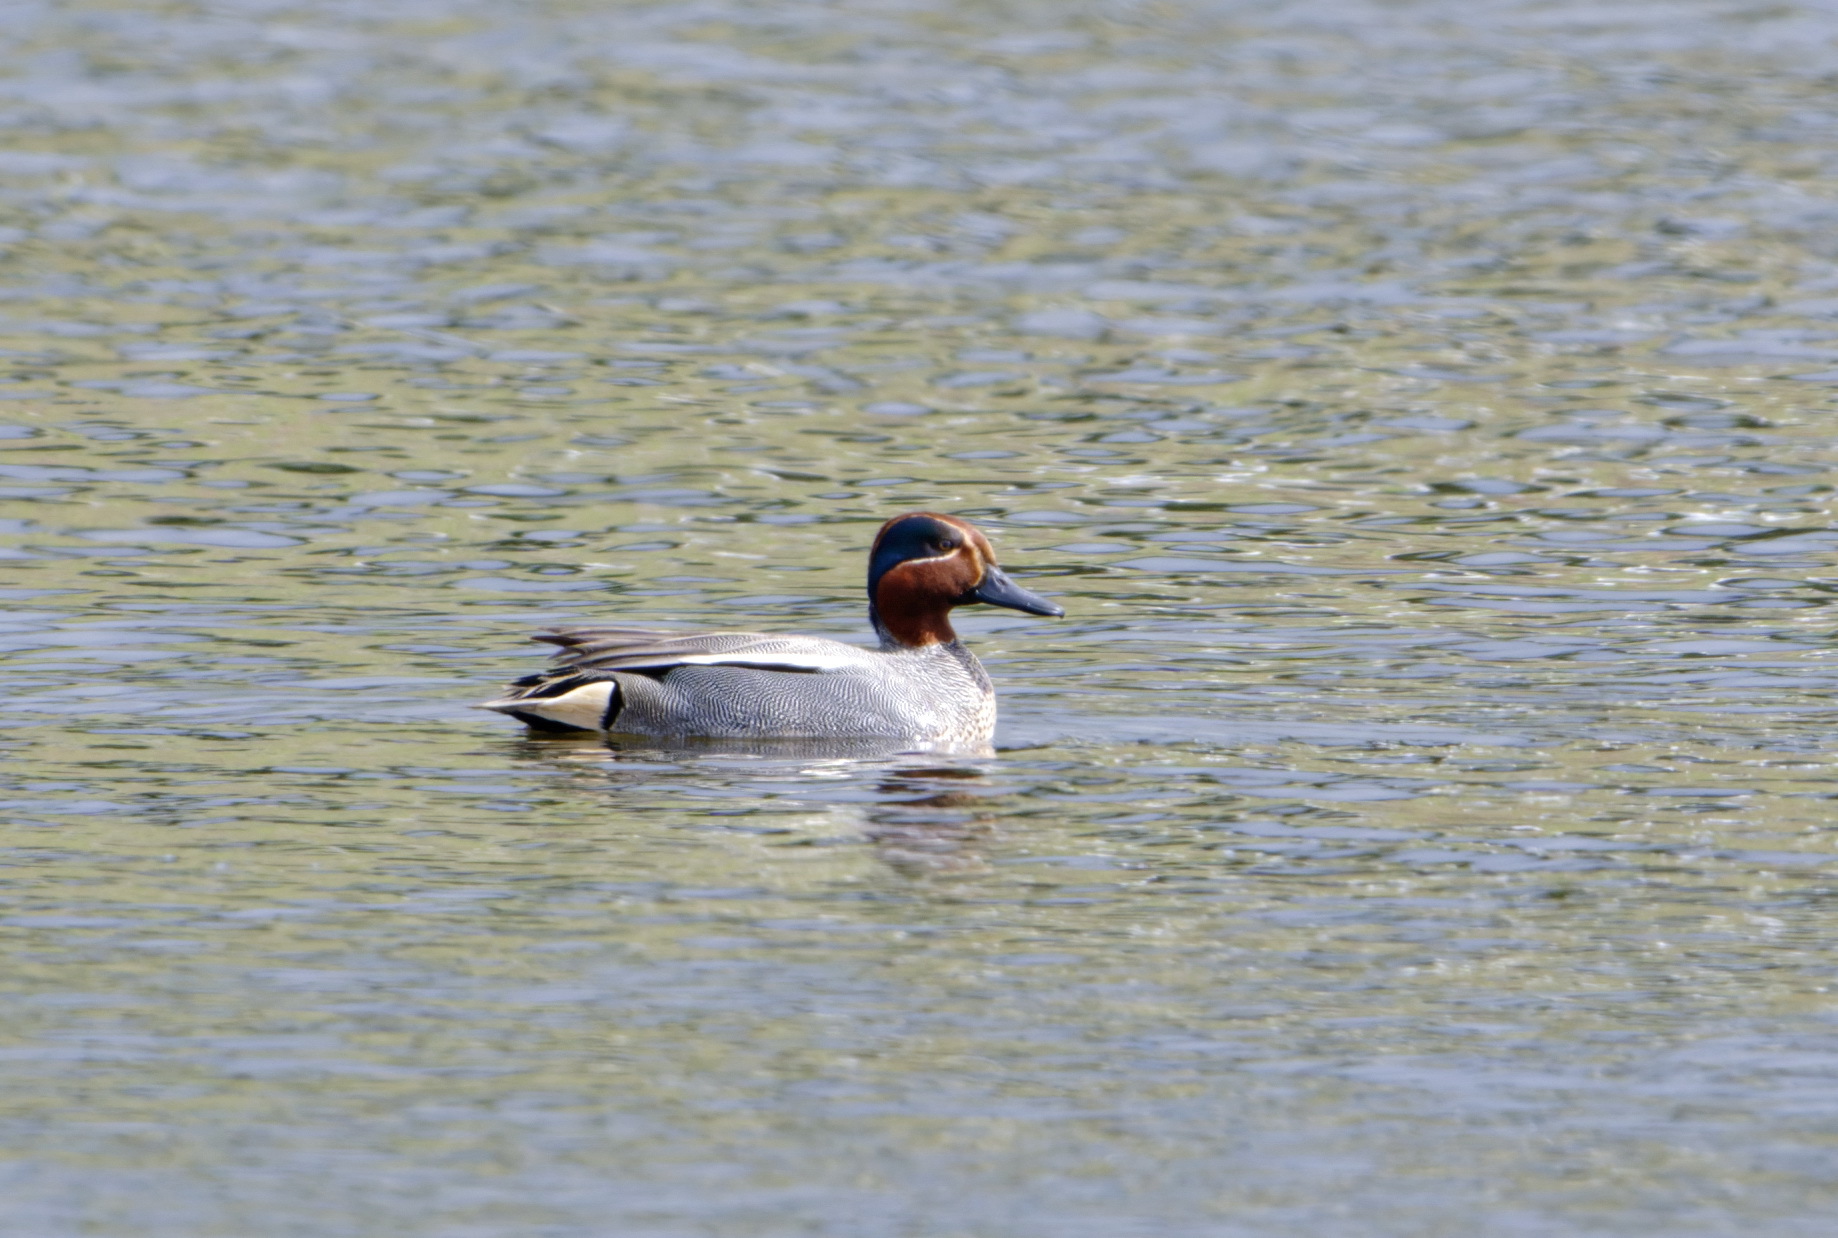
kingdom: Animalia
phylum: Chordata
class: Aves
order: Anseriformes
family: Anatidae
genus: Anas
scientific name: Anas crecca
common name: Eurasian teal
